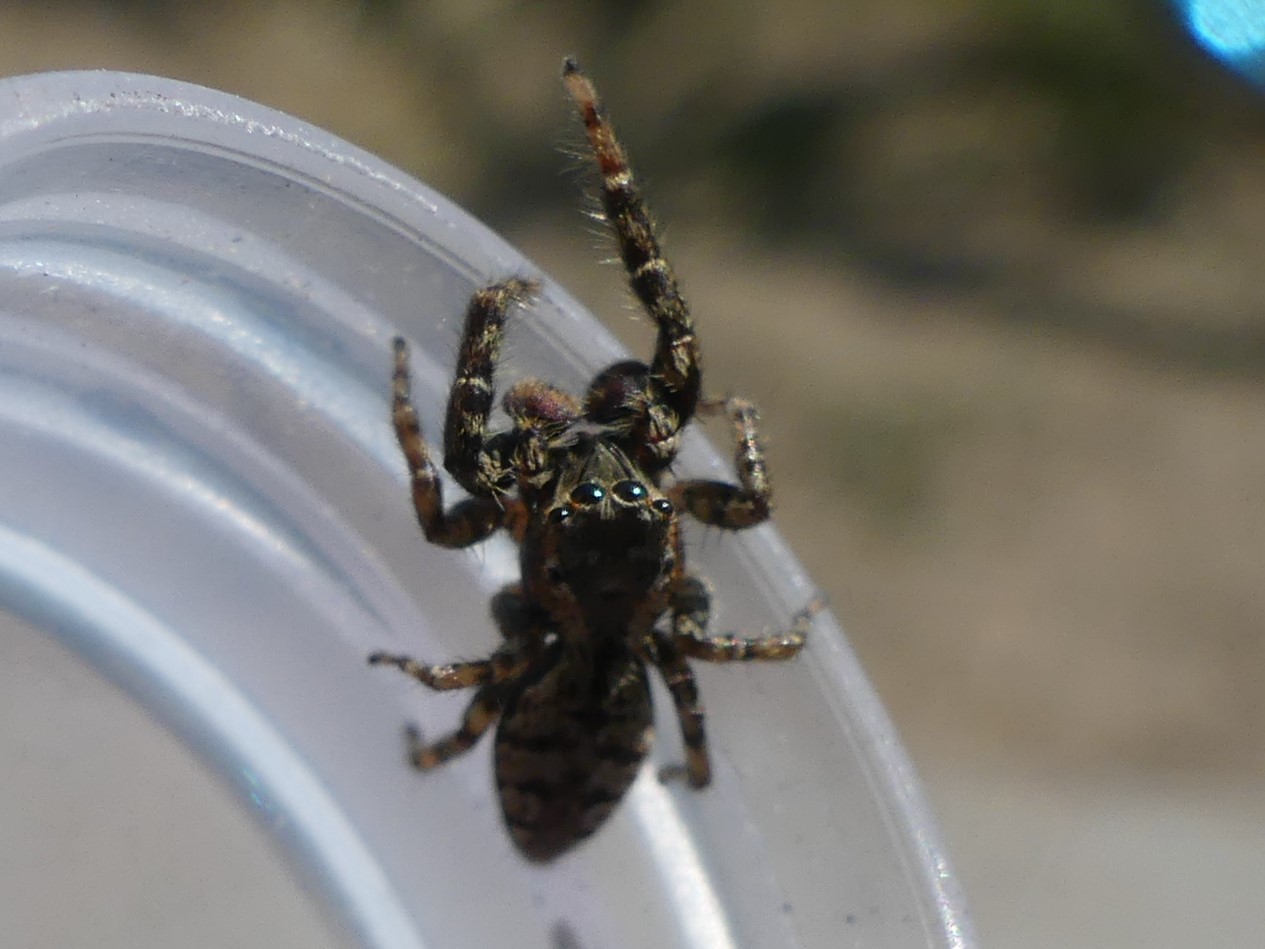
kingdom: Animalia
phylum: Arthropoda
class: Arachnida
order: Araneae
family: Salticidae
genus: Marpissa
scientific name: Marpissa muscosa
